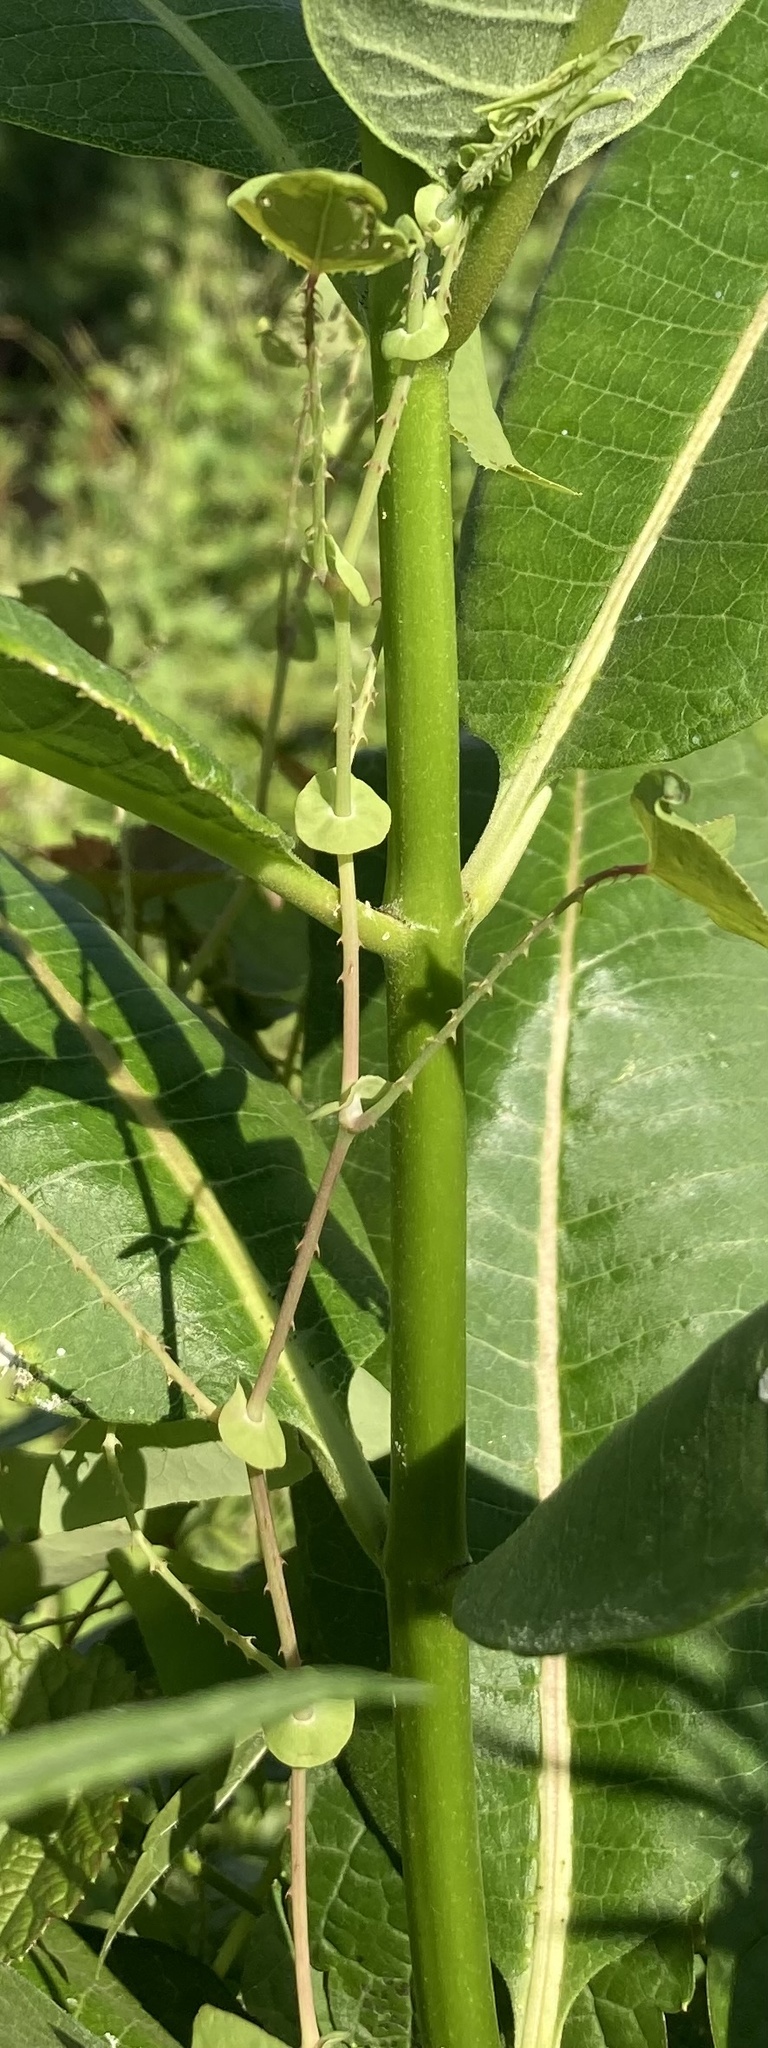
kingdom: Plantae
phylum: Tracheophyta
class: Magnoliopsida
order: Caryophyllales
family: Polygonaceae
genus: Persicaria
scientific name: Persicaria perfoliata
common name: Asiatic tearthumb
